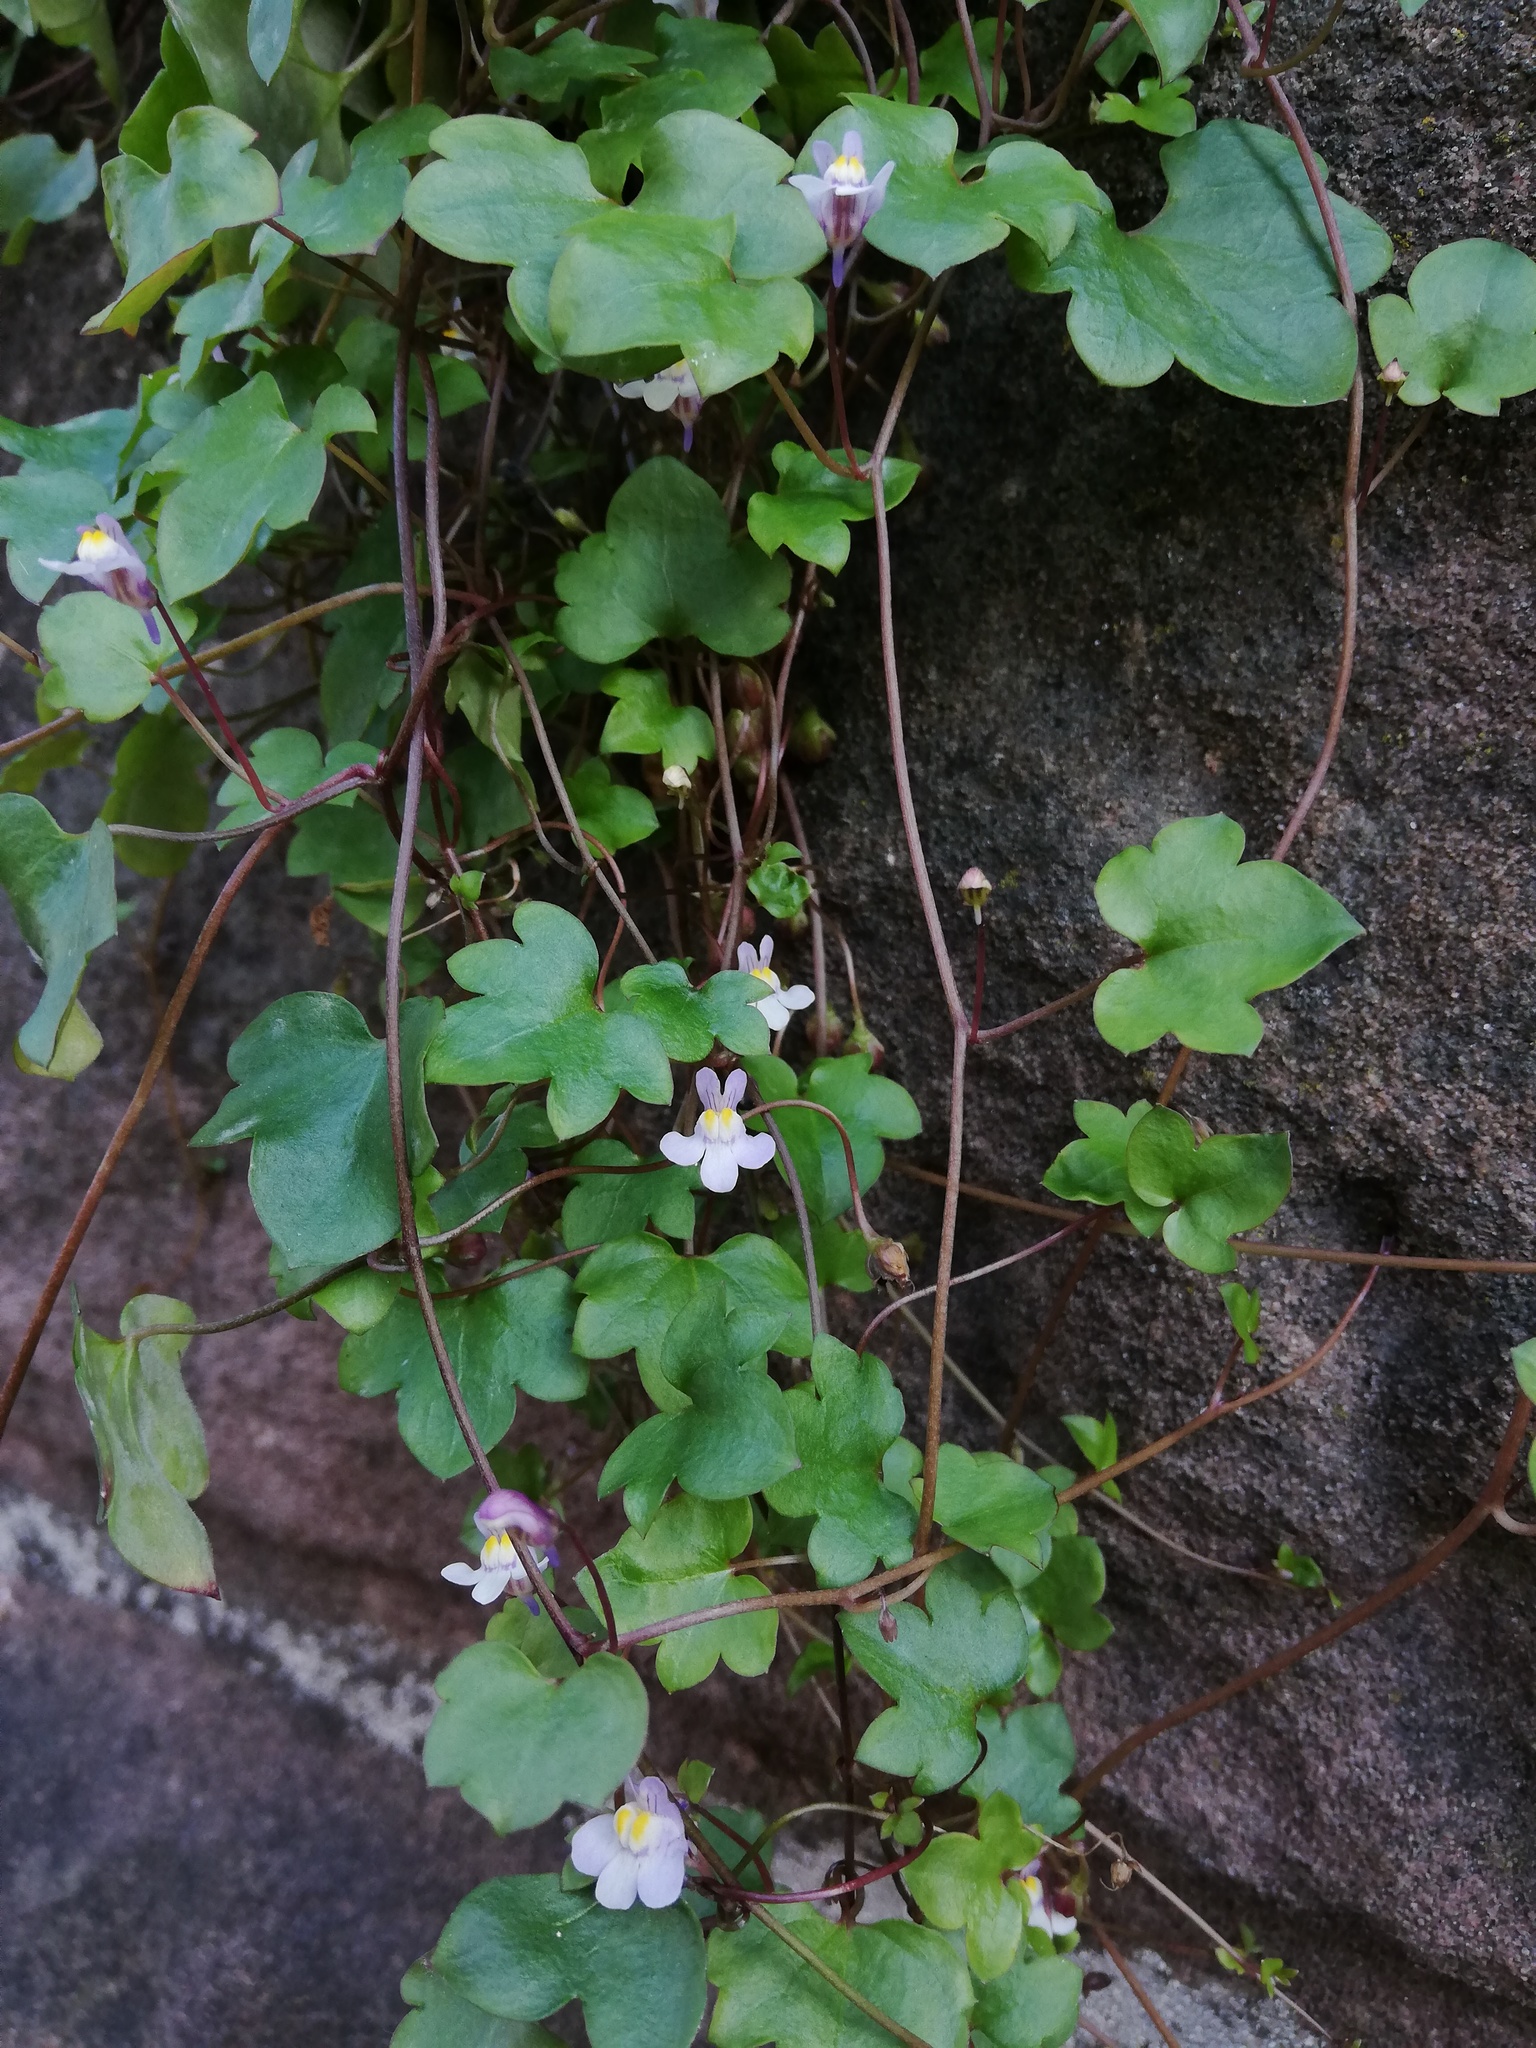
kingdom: Plantae
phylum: Tracheophyta
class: Magnoliopsida
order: Lamiales
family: Plantaginaceae
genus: Cymbalaria
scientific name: Cymbalaria muralis
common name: Ivy-leaved toadflax
